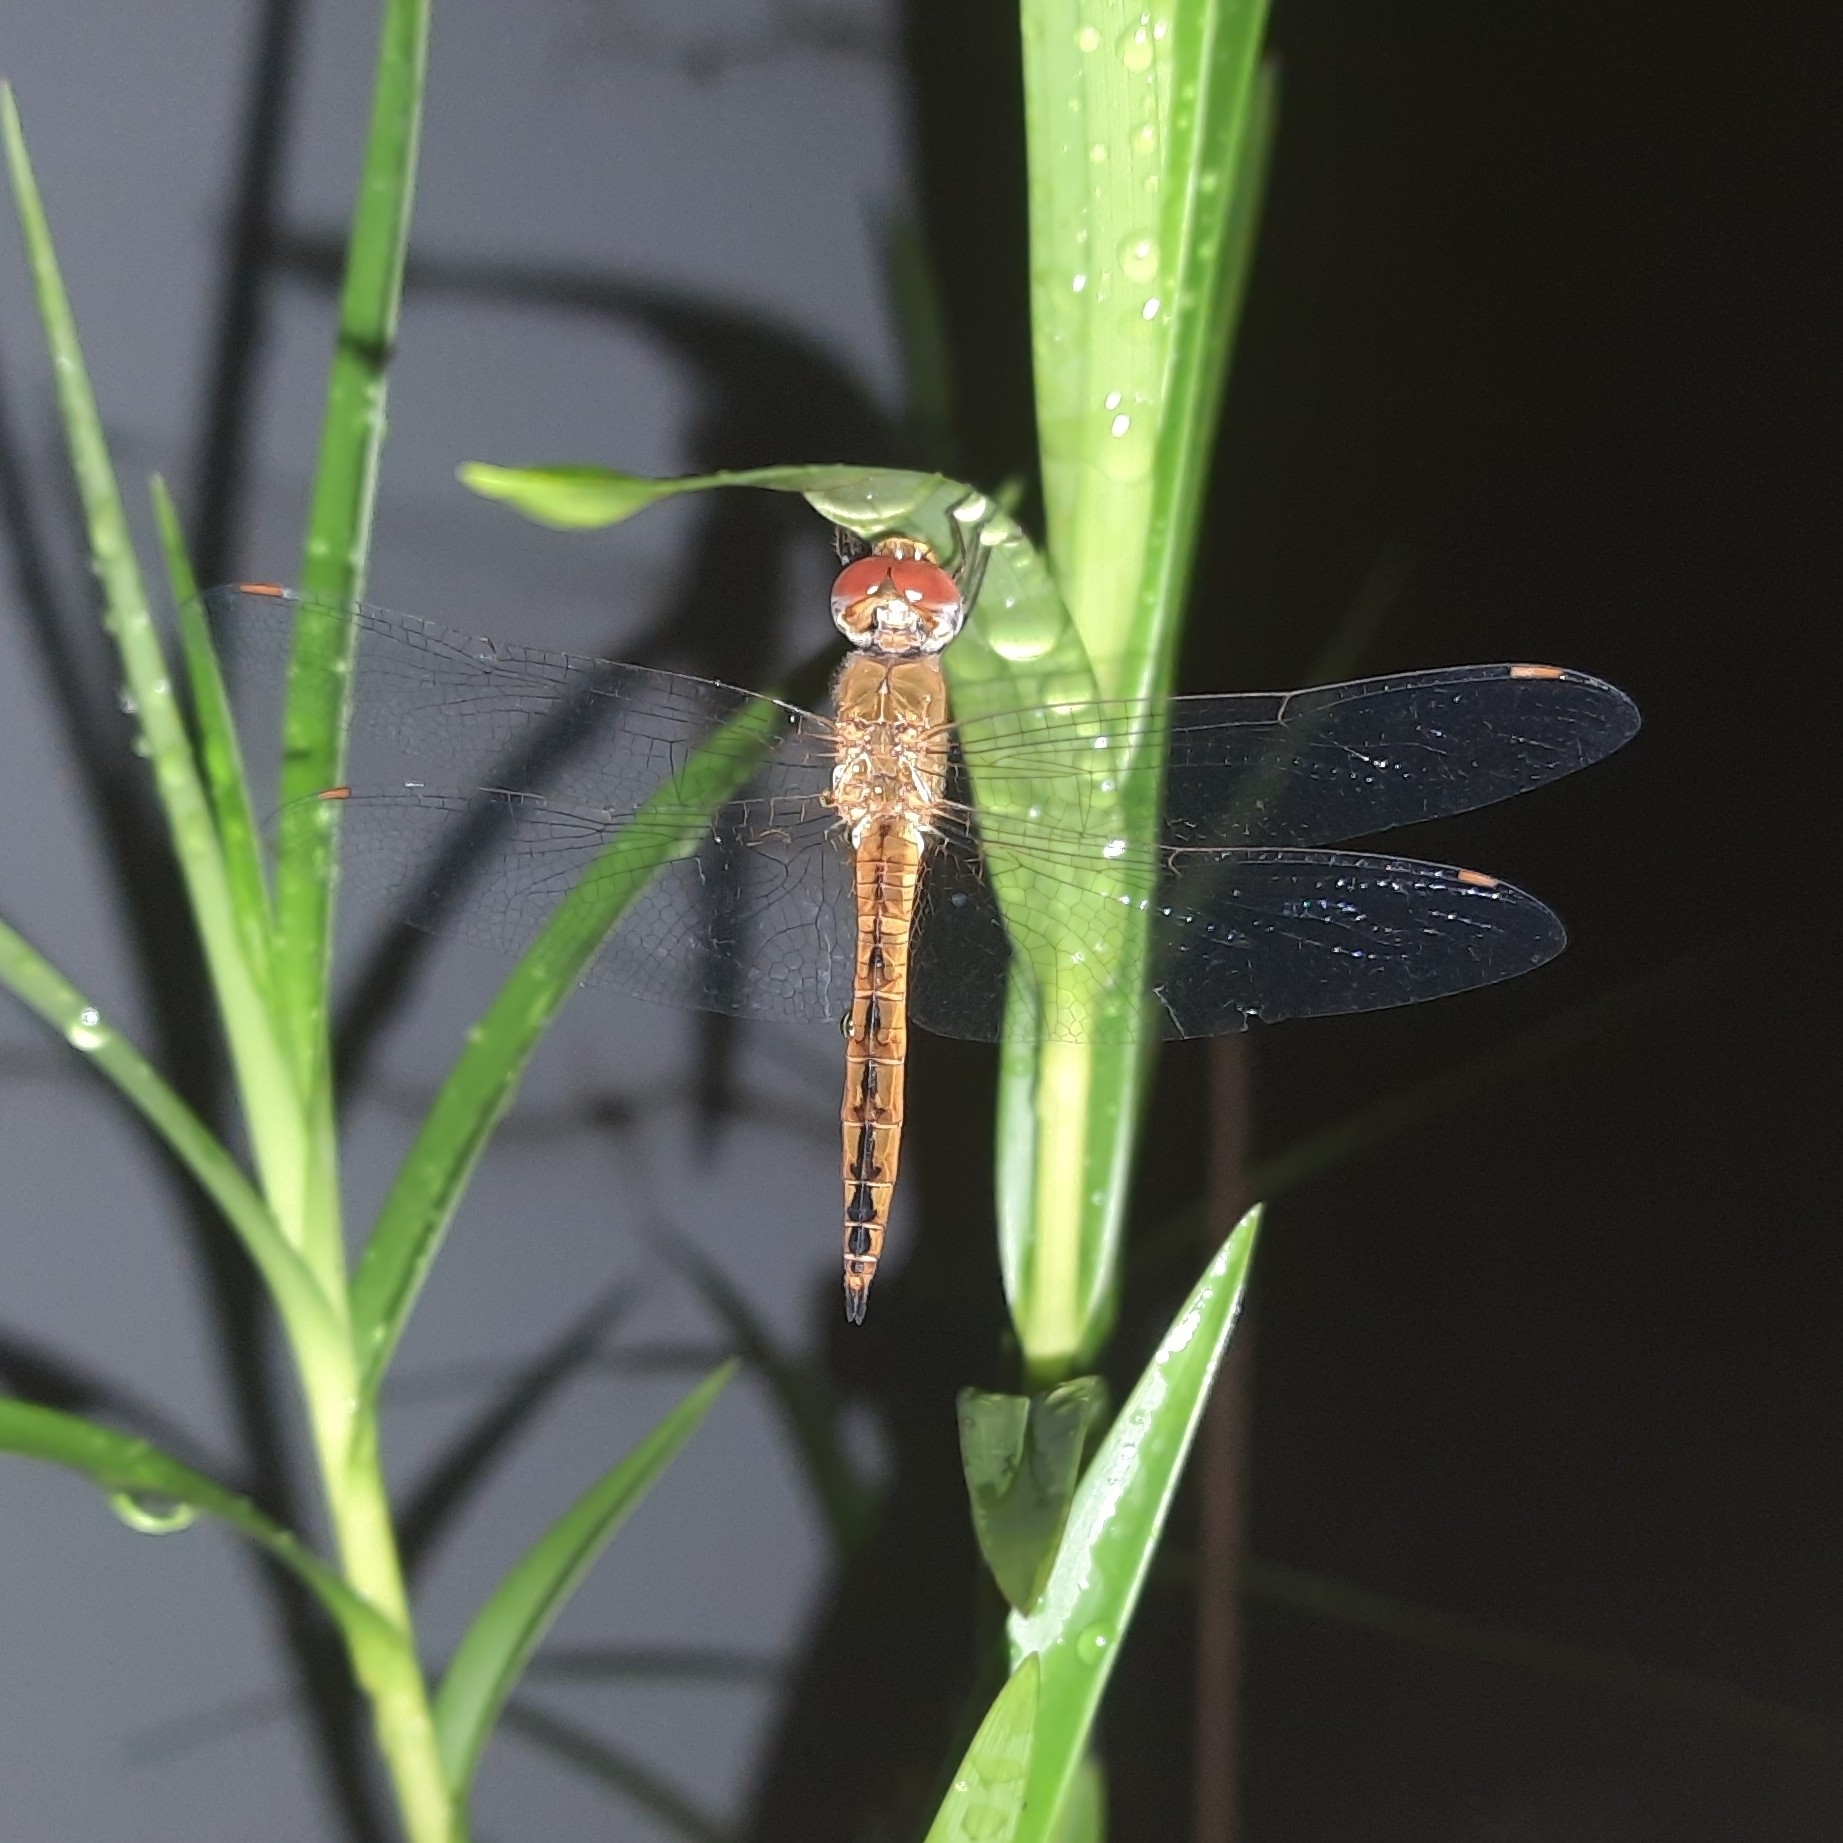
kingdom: Animalia
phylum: Arthropoda
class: Insecta
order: Odonata
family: Libellulidae
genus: Pantala
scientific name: Pantala flavescens
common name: Wandering glider
